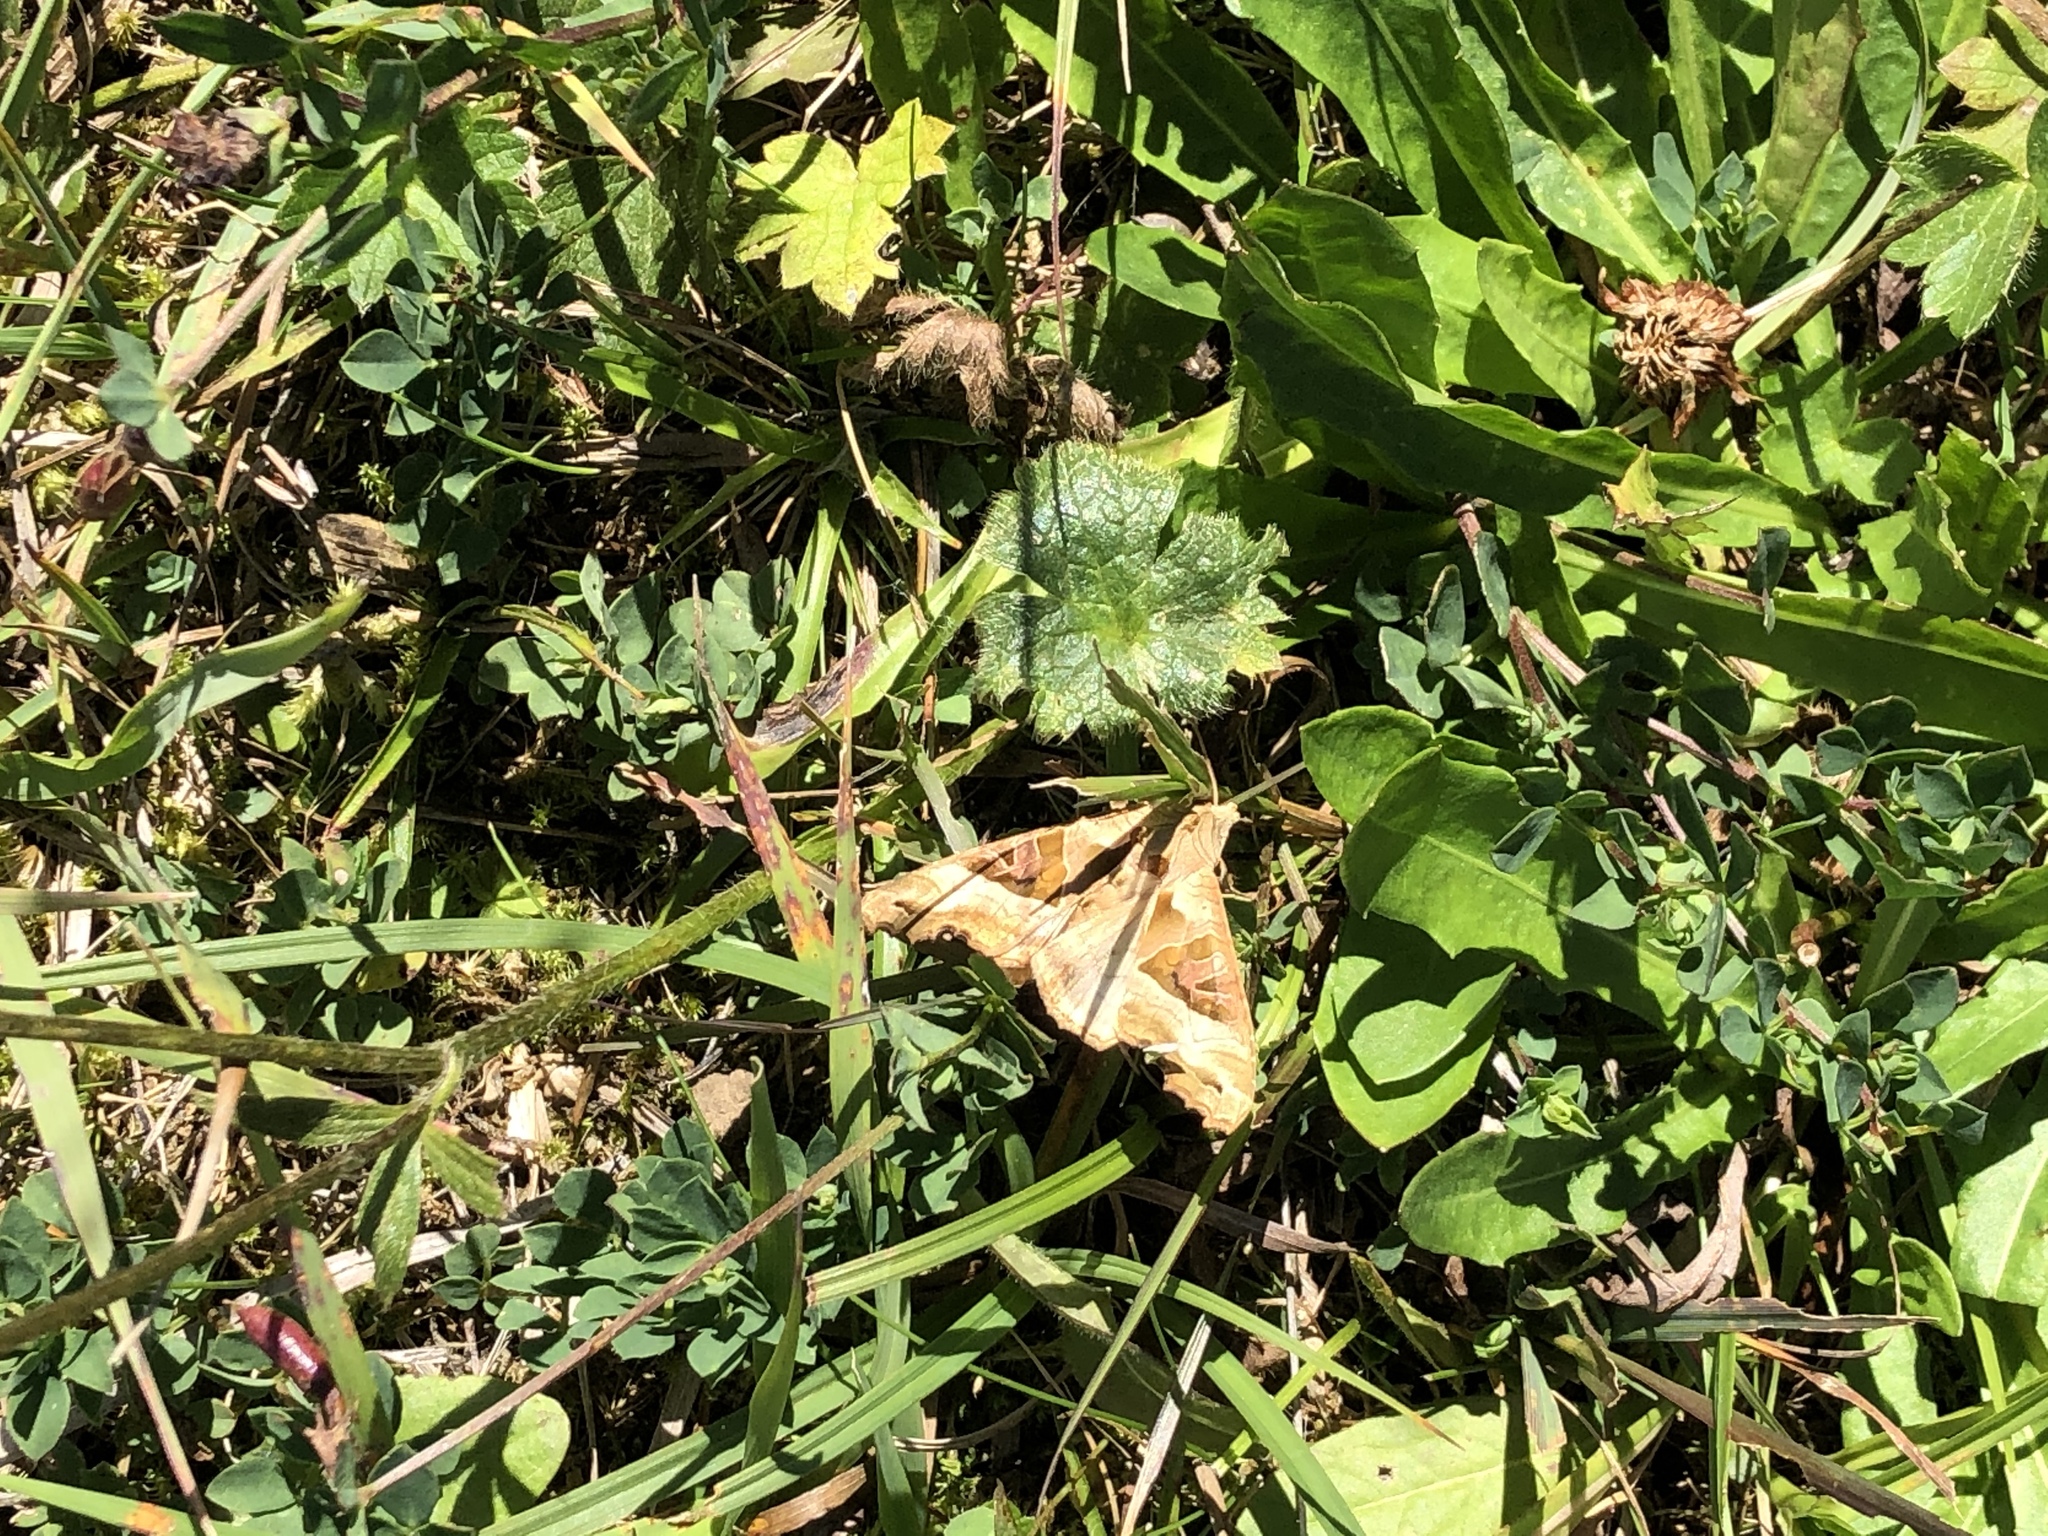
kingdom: Animalia
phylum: Arthropoda
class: Insecta
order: Lepidoptera
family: Noctuidae
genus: Phlogophora
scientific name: Phlogophora meticulosa
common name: Angle shades
